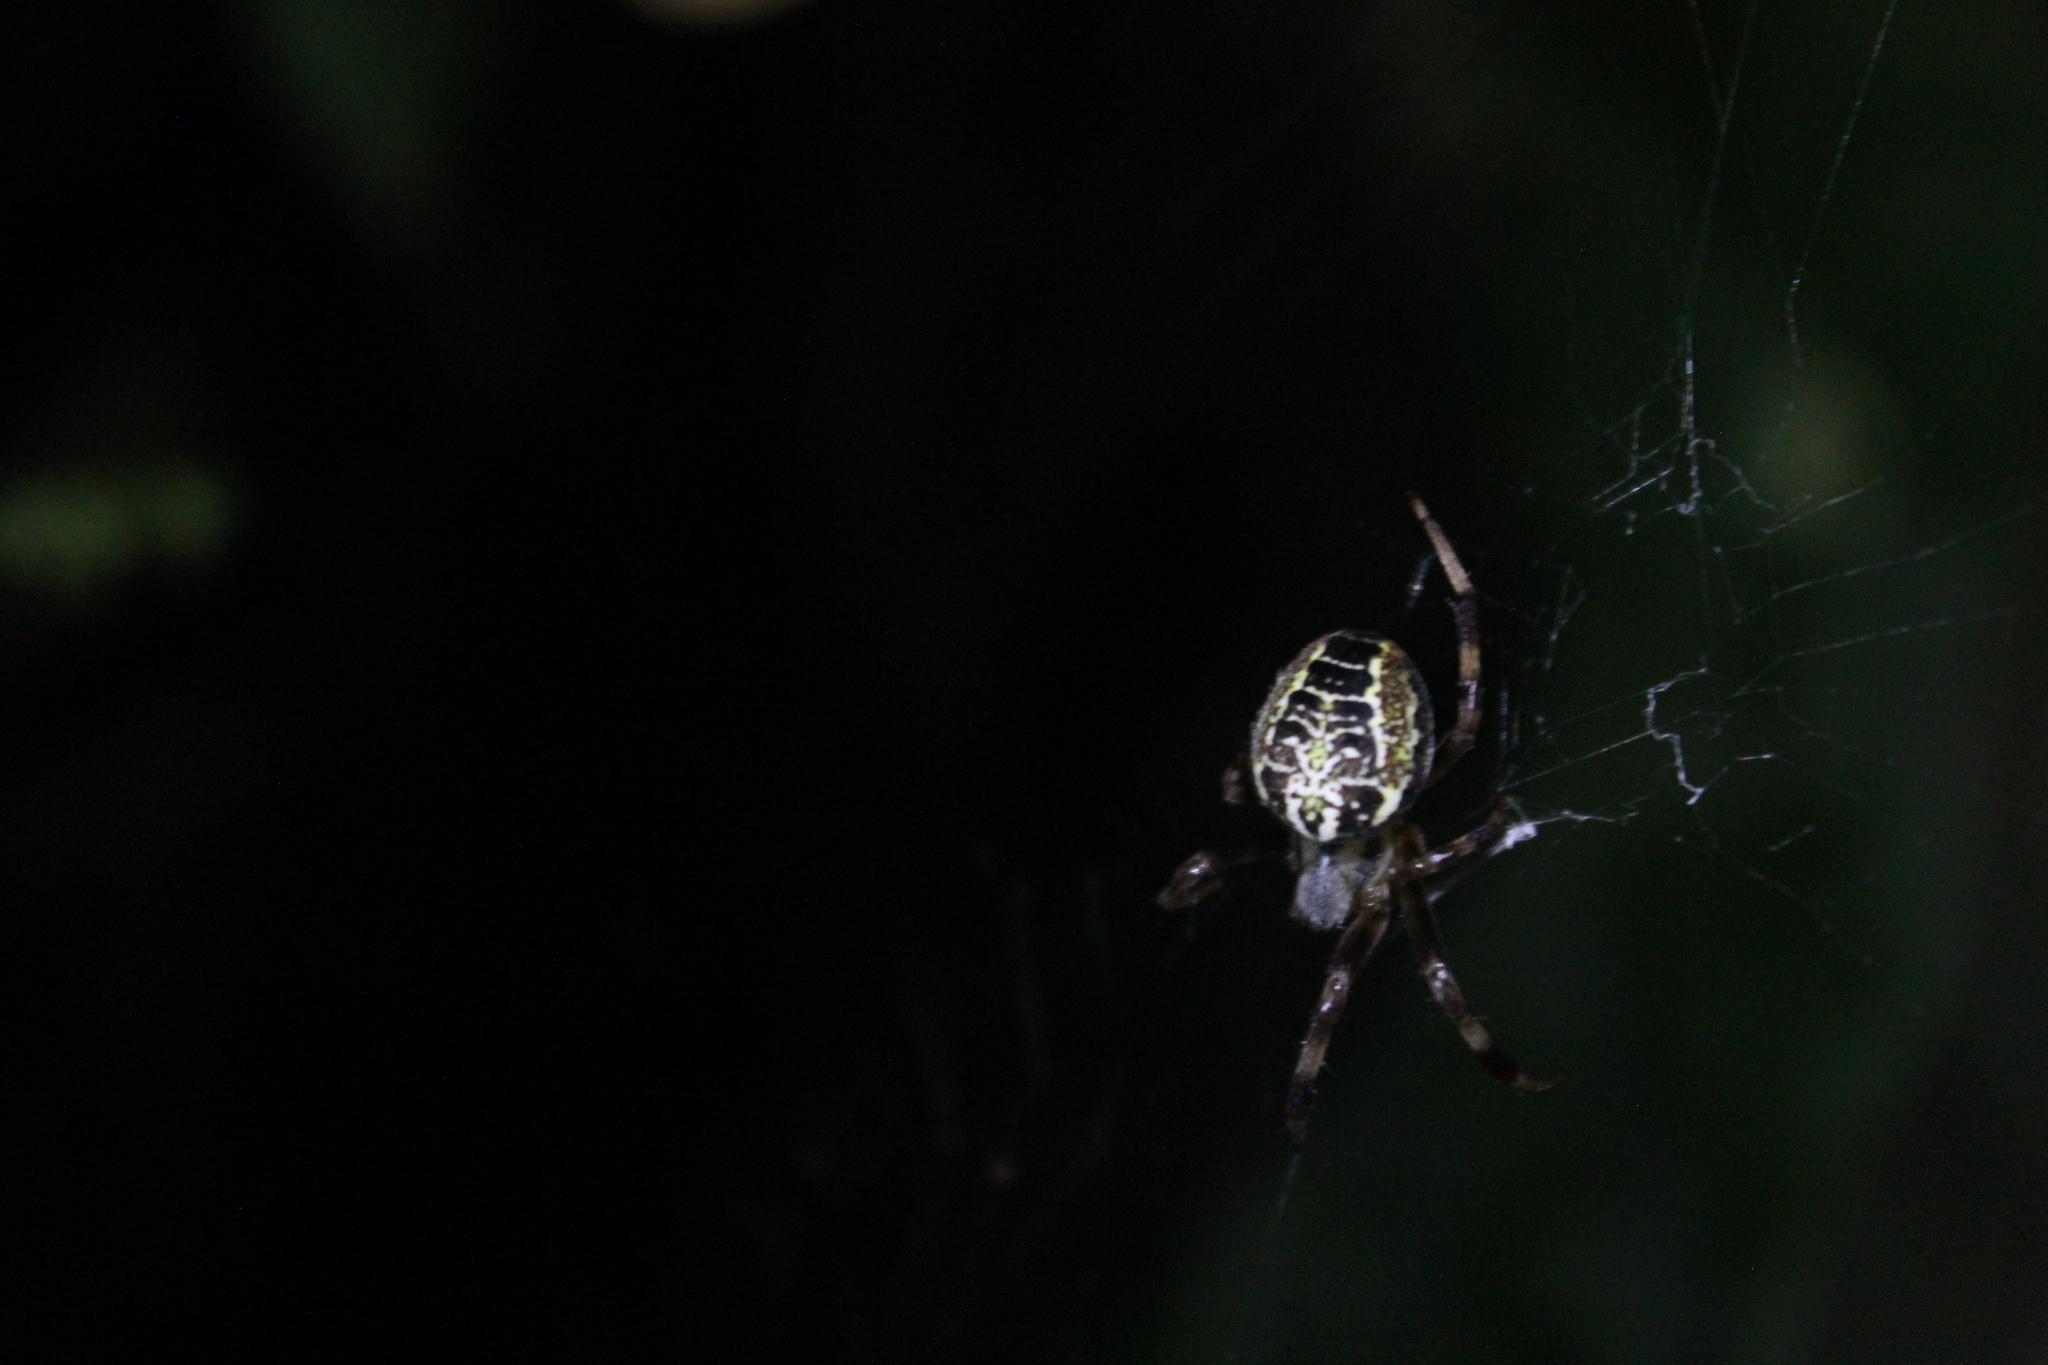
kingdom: Animalia
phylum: Arthropoda
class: Arachnida
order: Araneae
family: Araneidae
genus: Araneus
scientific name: Araneus venatrix
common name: Orb weavers
